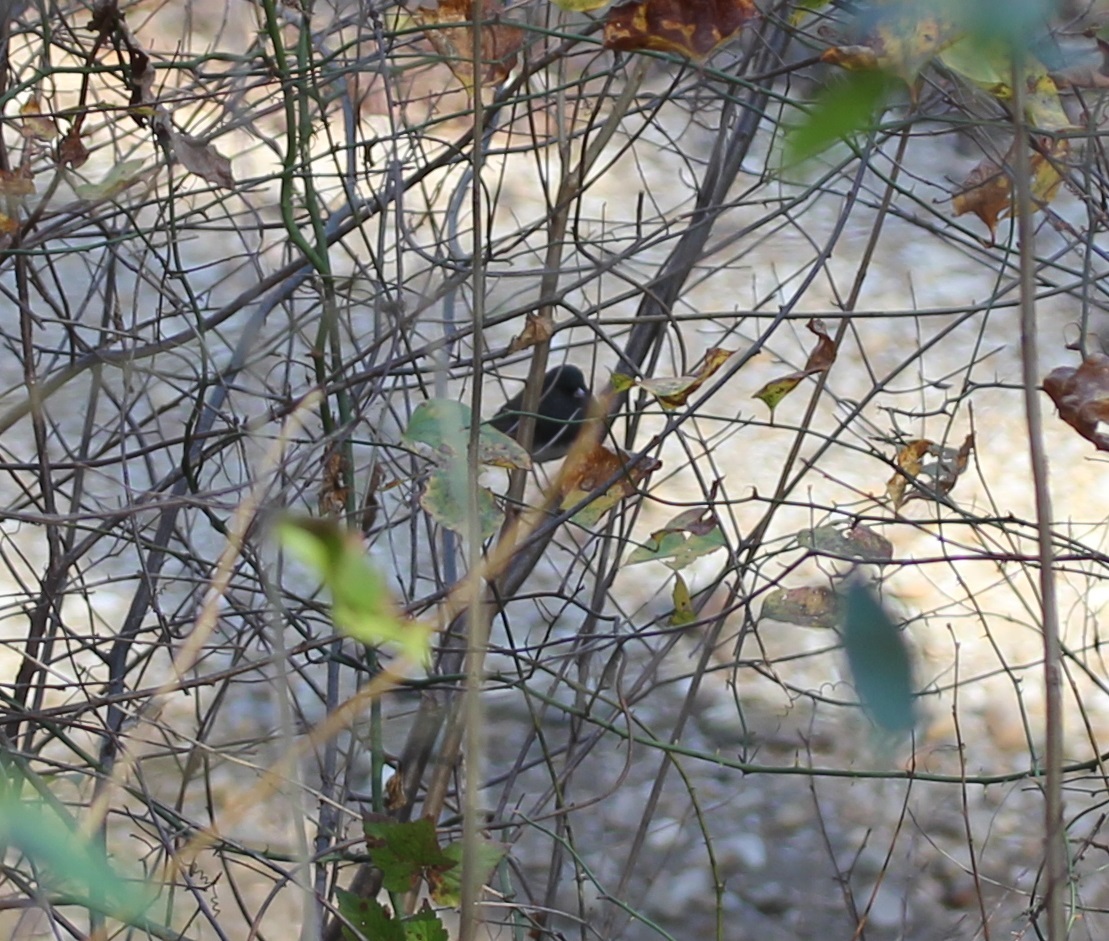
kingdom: Animalia
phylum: Chordata
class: Aves
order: Passeriformes
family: Passerellidae
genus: Junco
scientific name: Junco hyemalis
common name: Dark-eyed junco
